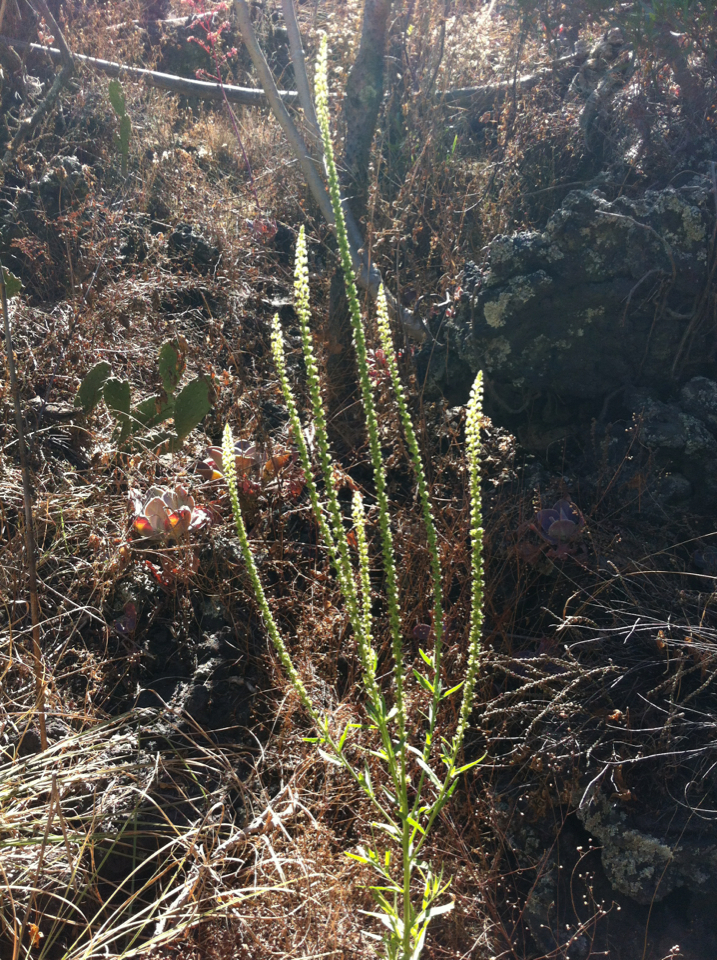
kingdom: Plantae
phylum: Tracheophyta
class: Magnoliopsida
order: Brassicales
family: Resedaceae
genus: Reseda
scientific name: Reseda luteola
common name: Weld
